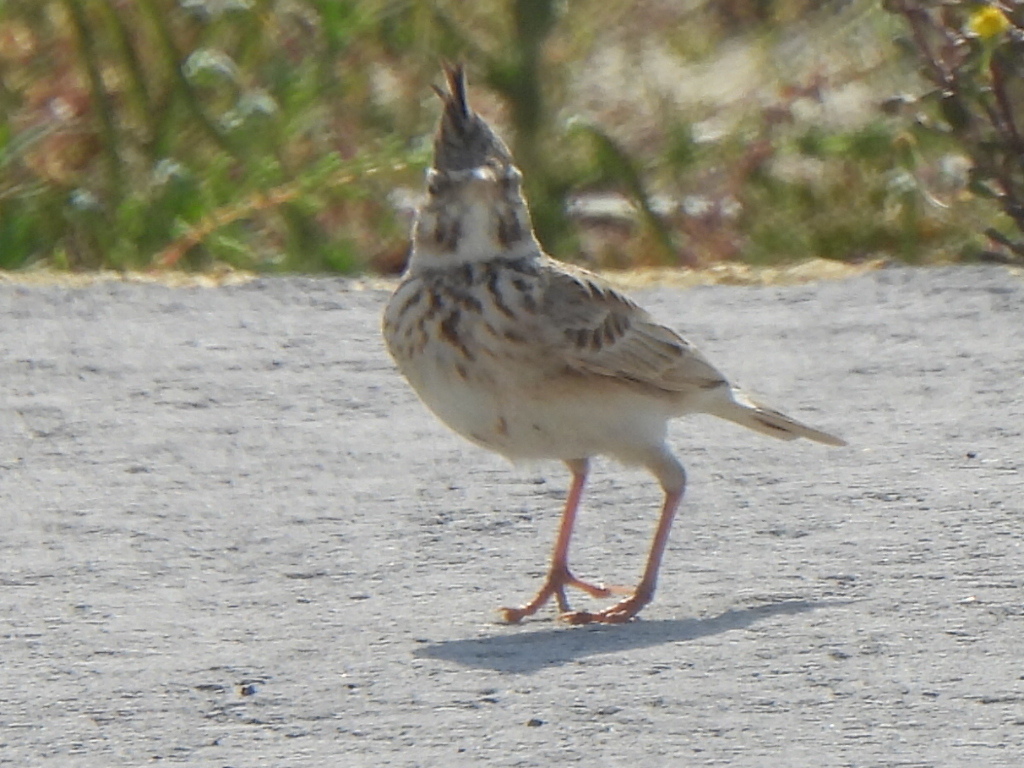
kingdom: Animalia
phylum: Chordata
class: Aves
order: Passeriformes
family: Alaudidae
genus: Galerida
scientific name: Galerida cristata
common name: Crested lark
